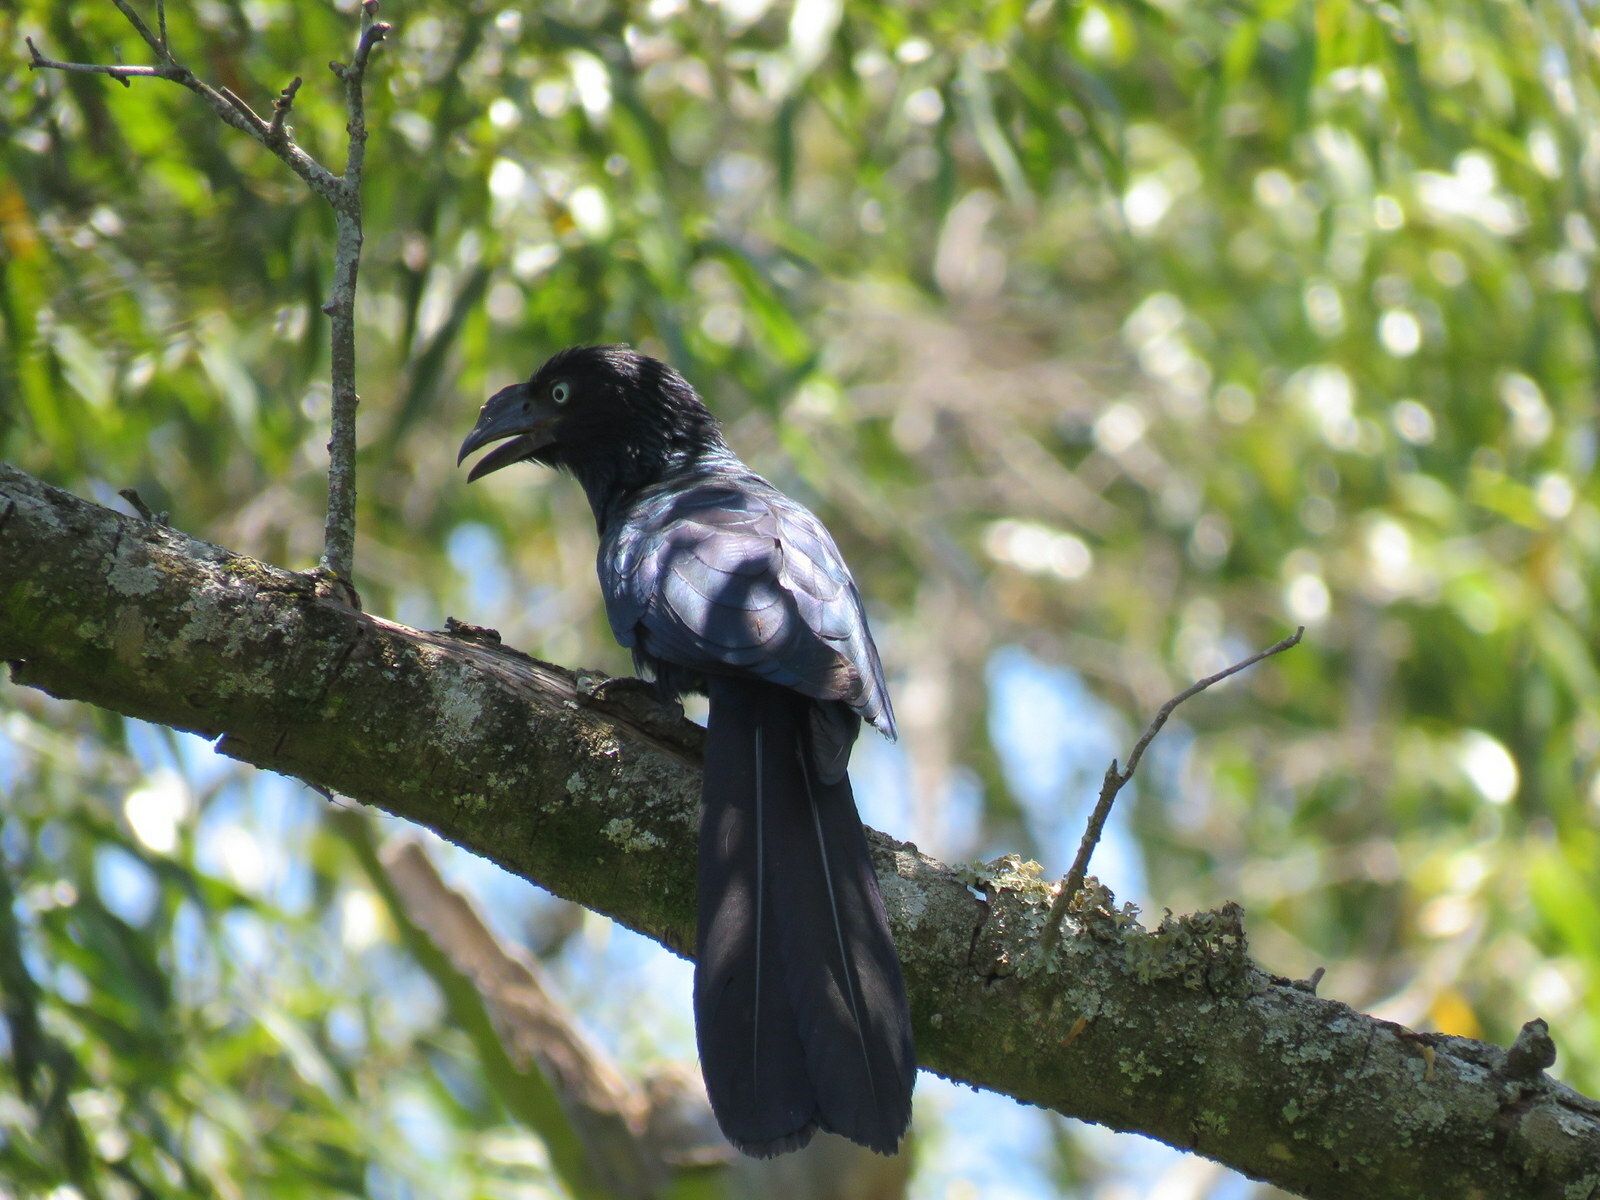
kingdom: Animalia
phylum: Chordata
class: Aves
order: Cuculiformes
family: Cuculidae
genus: Crotophaga
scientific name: Crotophaga major
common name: Greater ani
